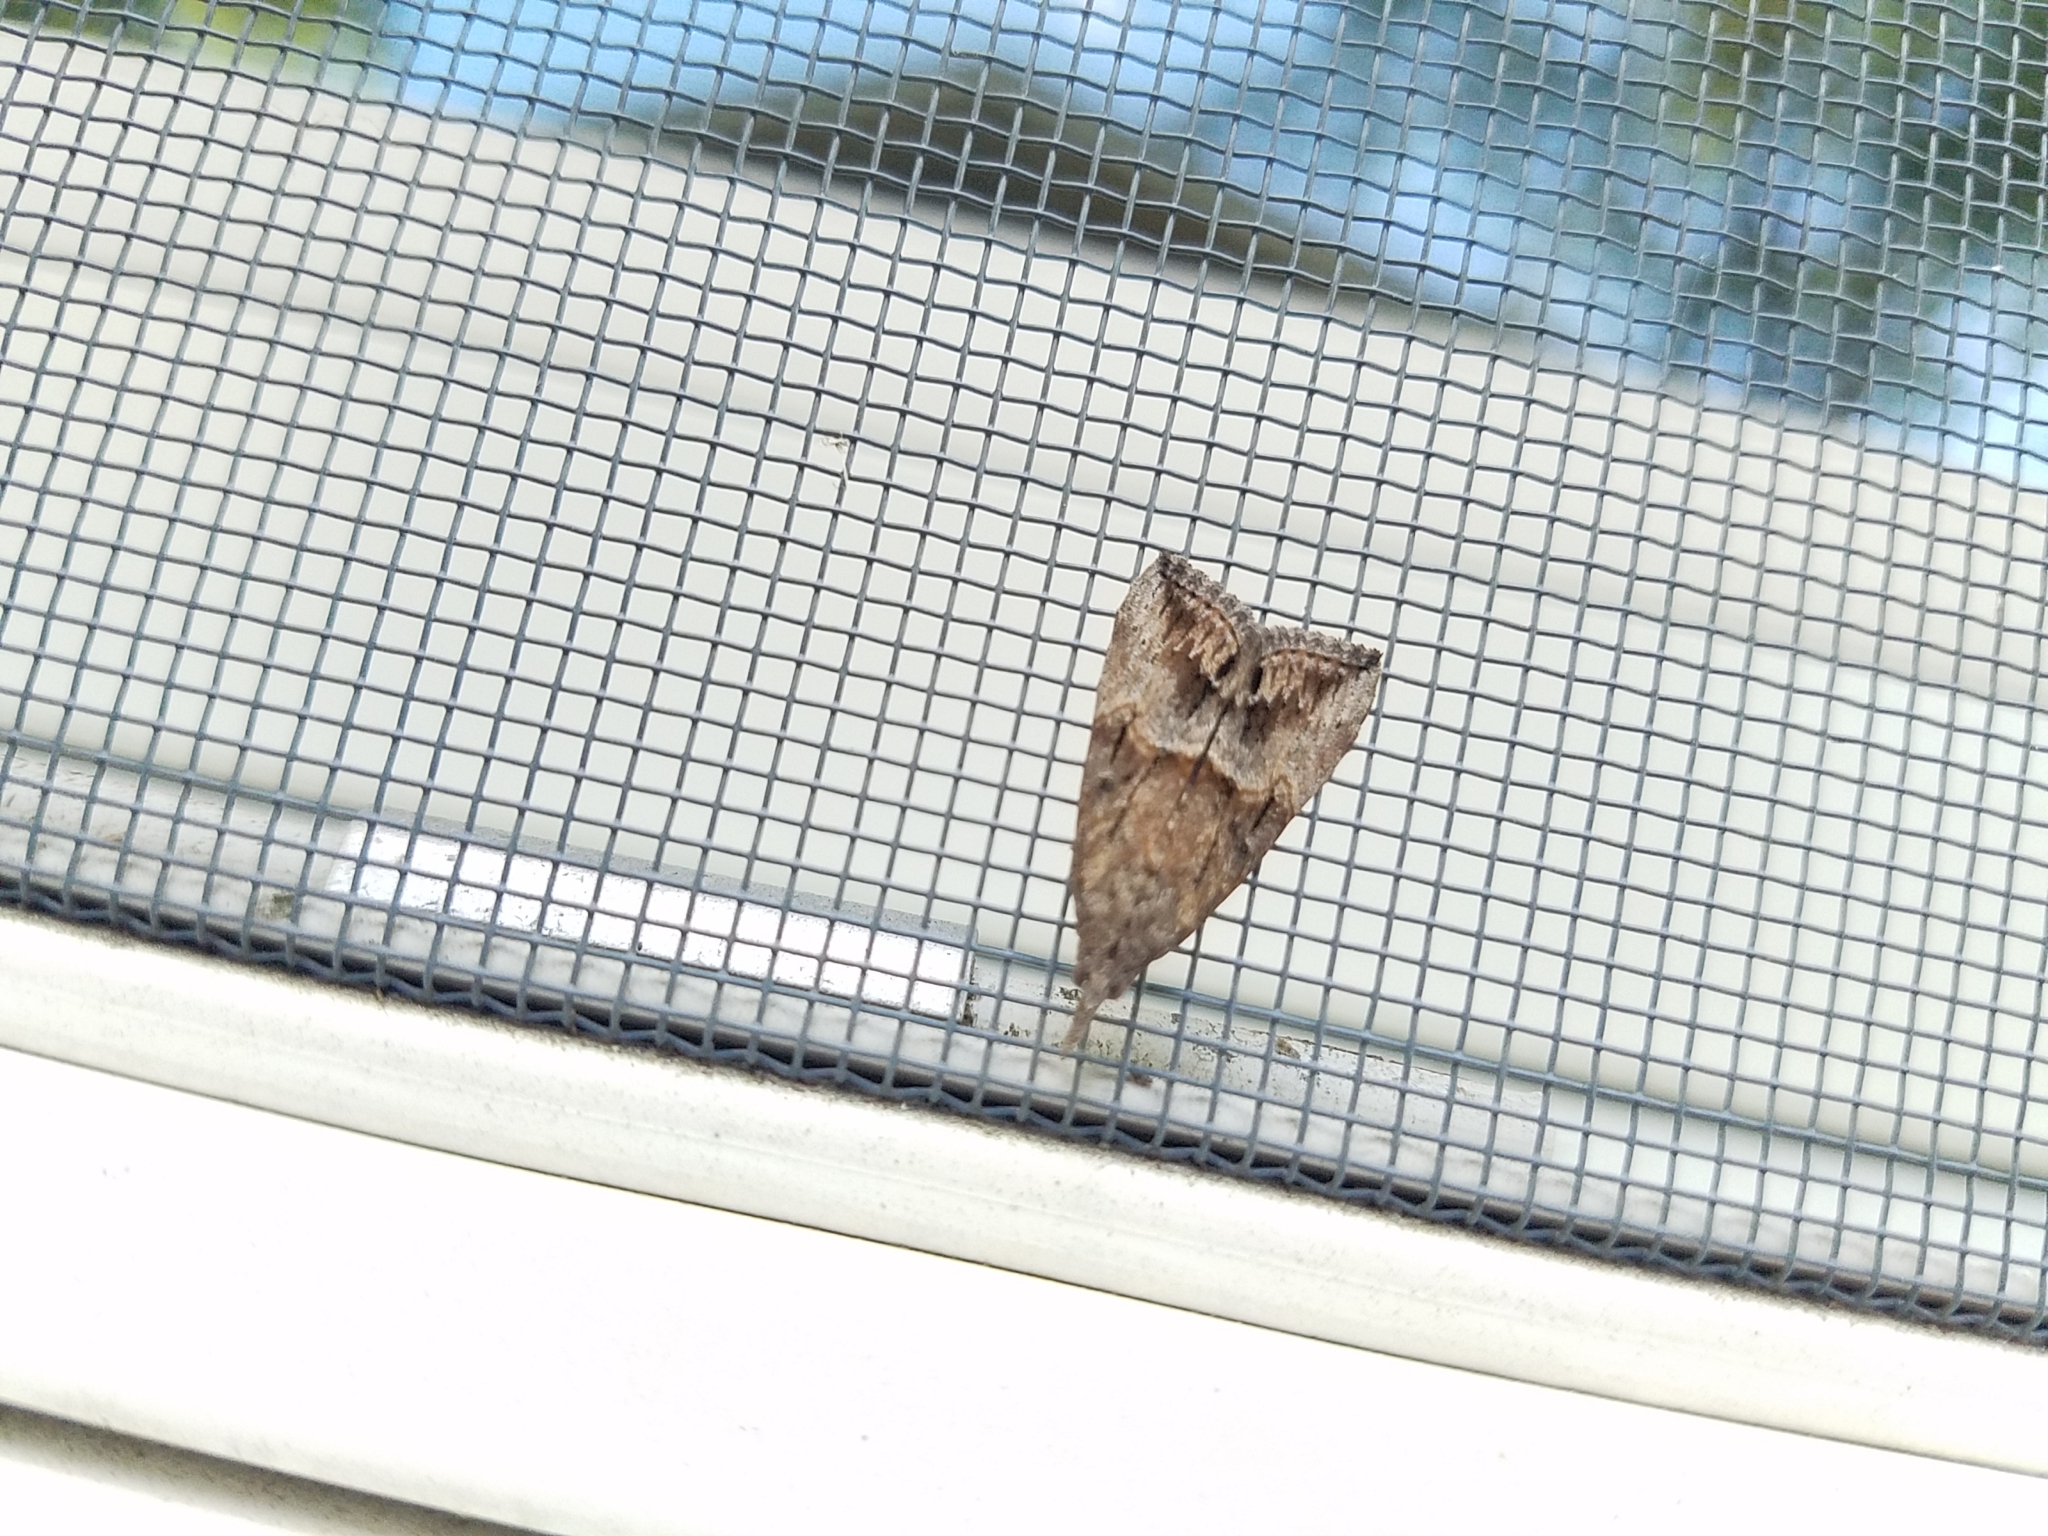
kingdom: Animalia
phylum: Arthropoda
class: Insecta
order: Lepidoptera
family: Erebidae
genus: Hypena
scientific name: Hypena scabra
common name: Green cloverworm
